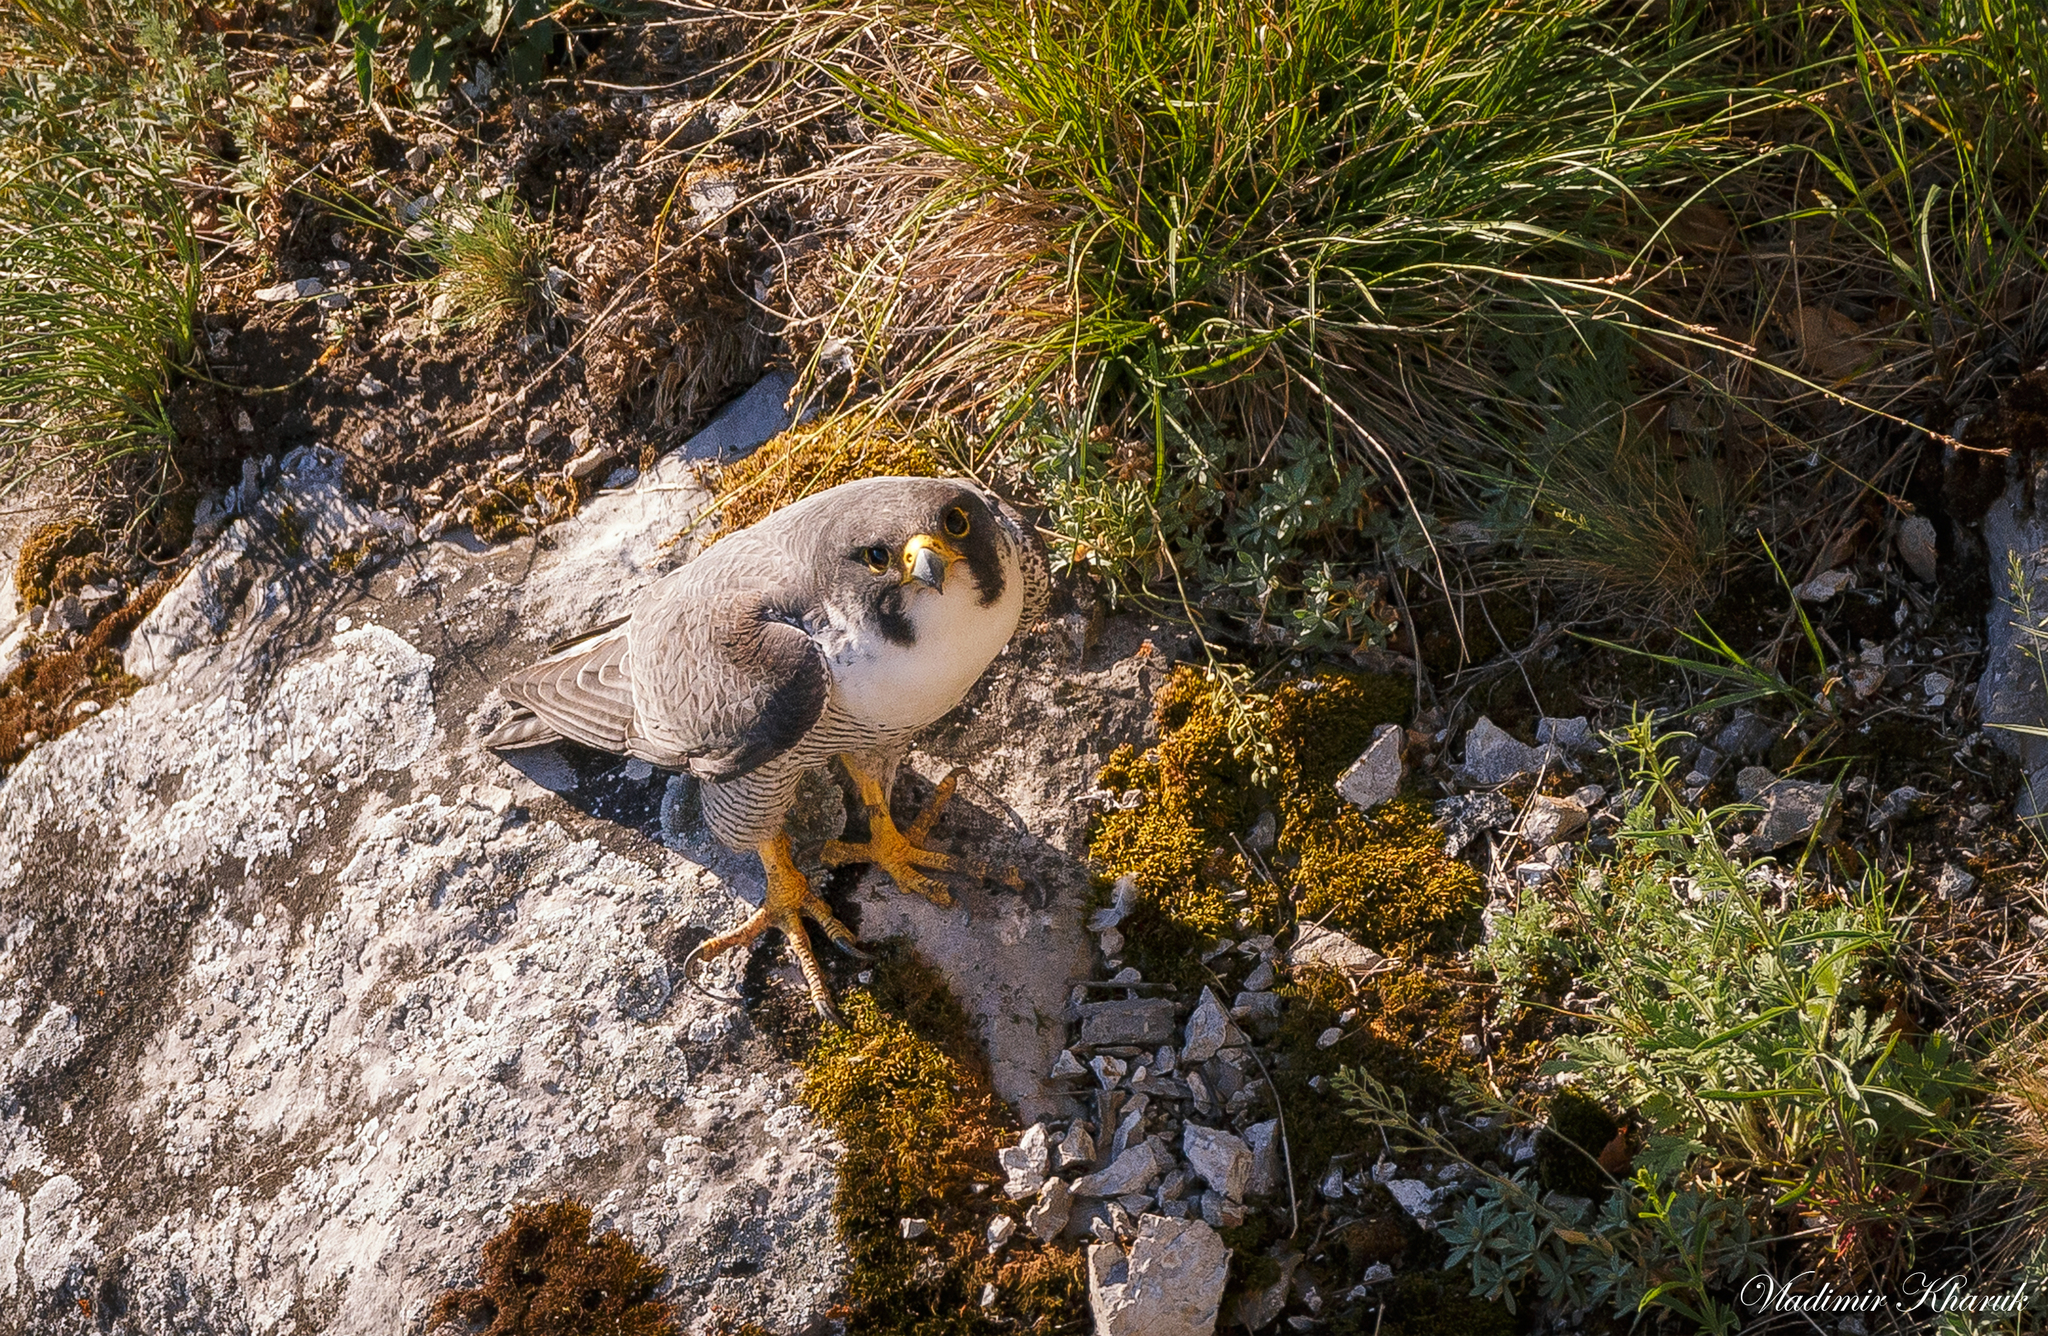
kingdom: Animalia
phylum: Chordata
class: Aves
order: Falconiformes
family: Falconidae
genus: Falco
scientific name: Falco peregrinus
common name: Peregrine falcon
